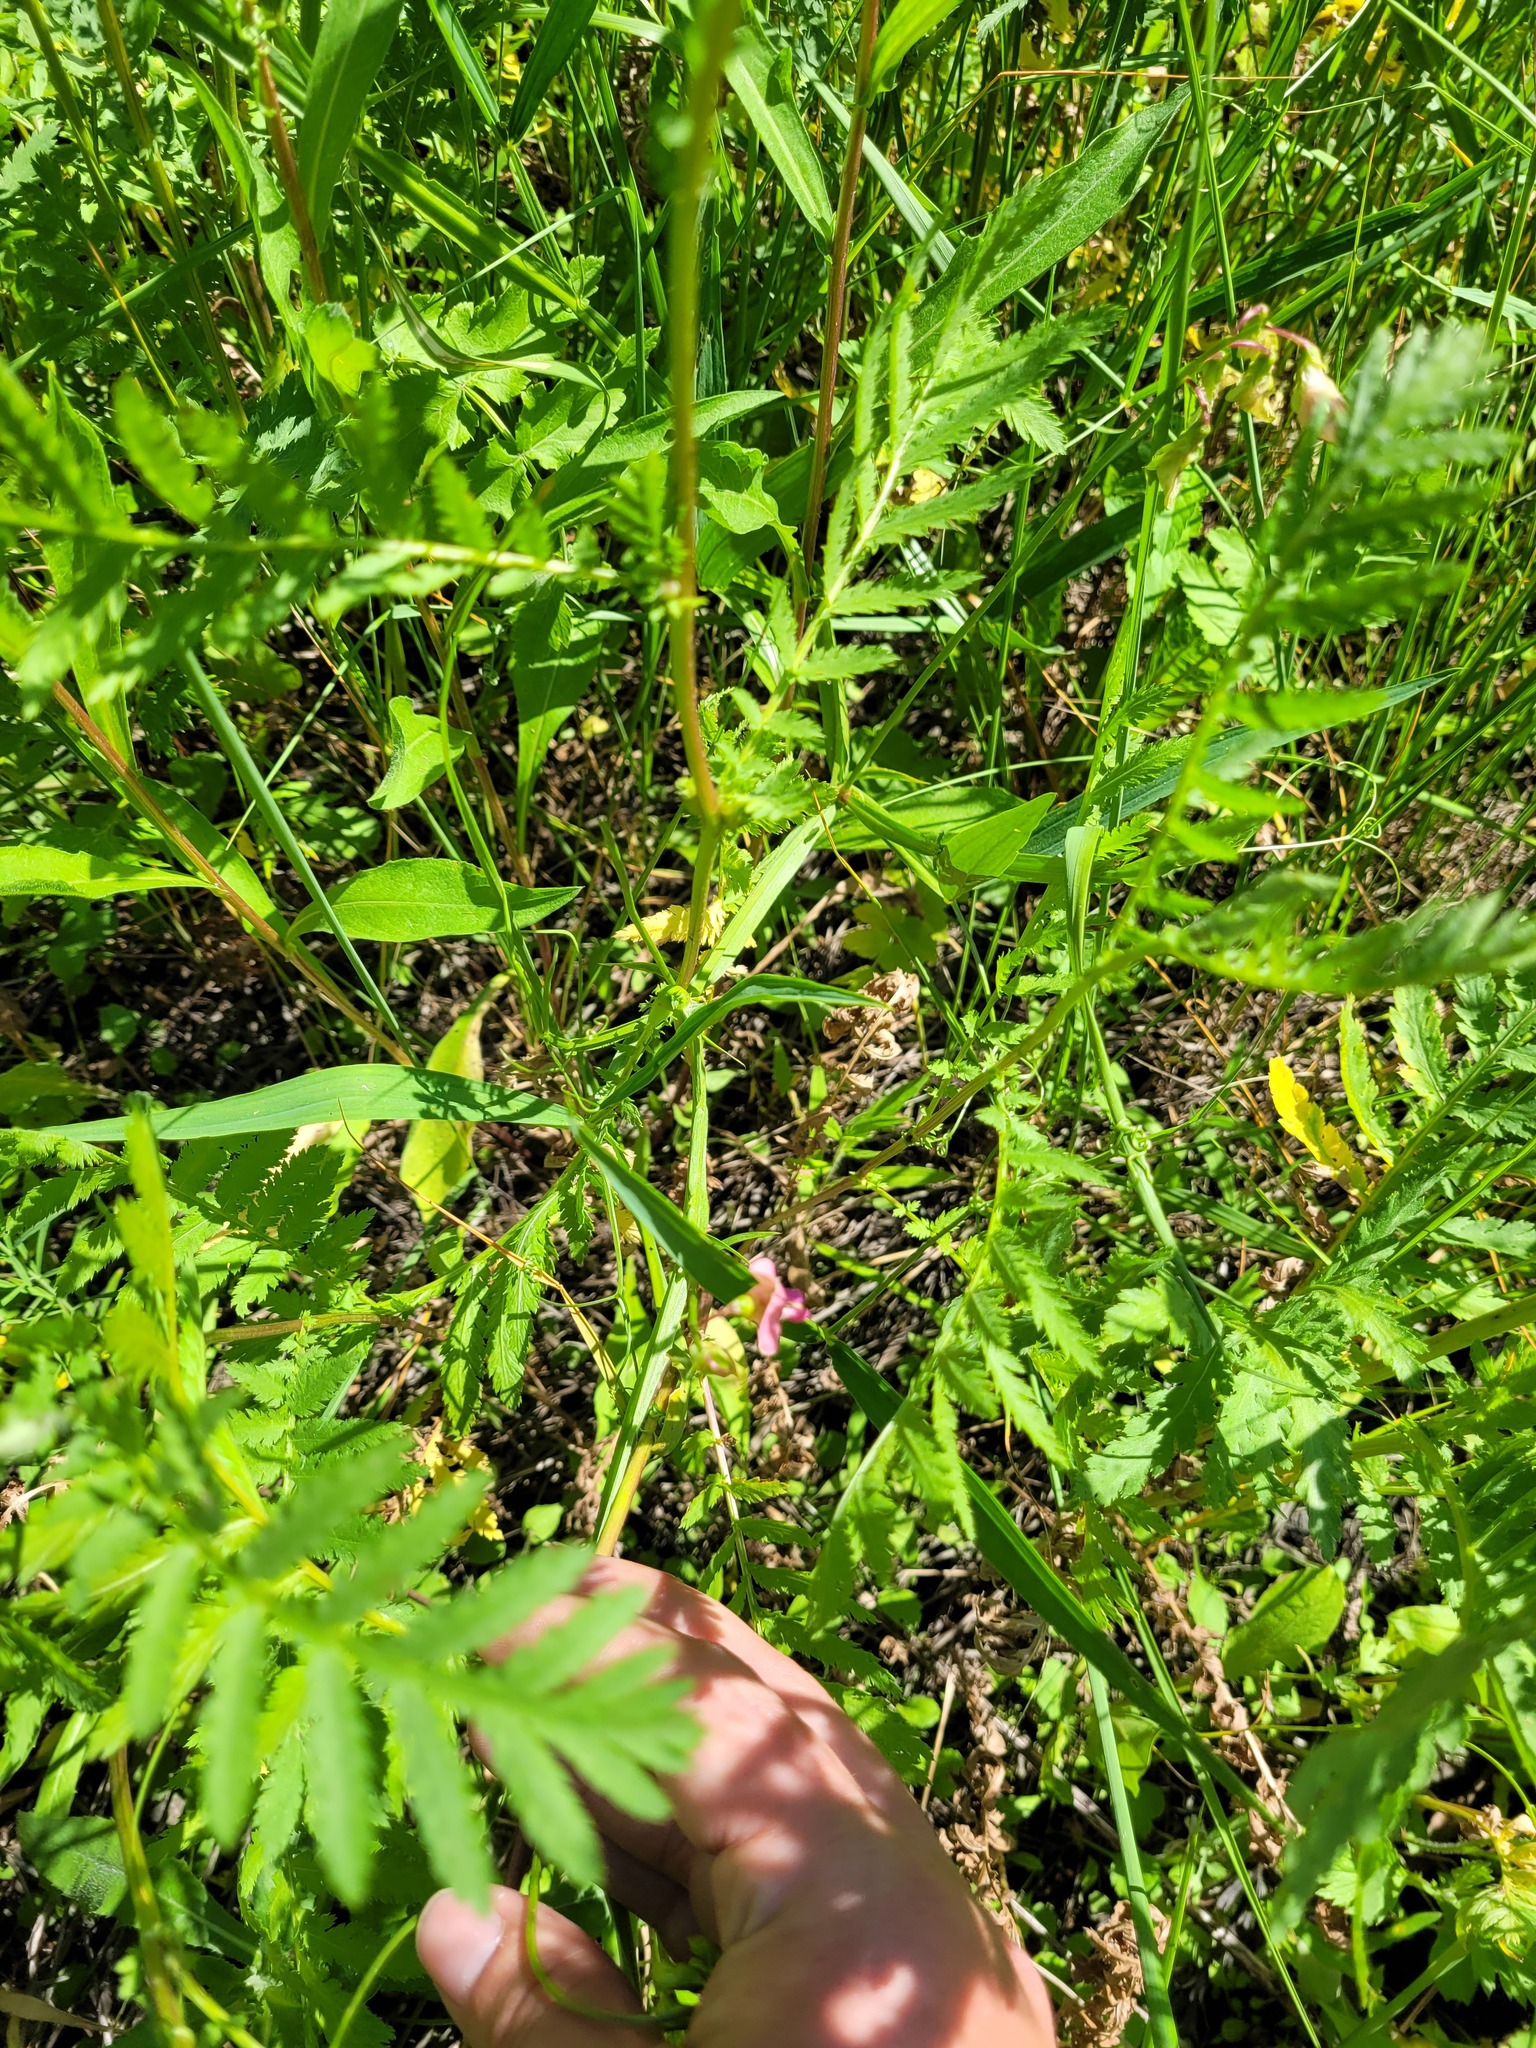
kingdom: Plantae
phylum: Tracheophyta
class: Magnoliopsida
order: Fabales
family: Fabaceae
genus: Lathyrus
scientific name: Lathyrus sylvestris
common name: Flat pea
